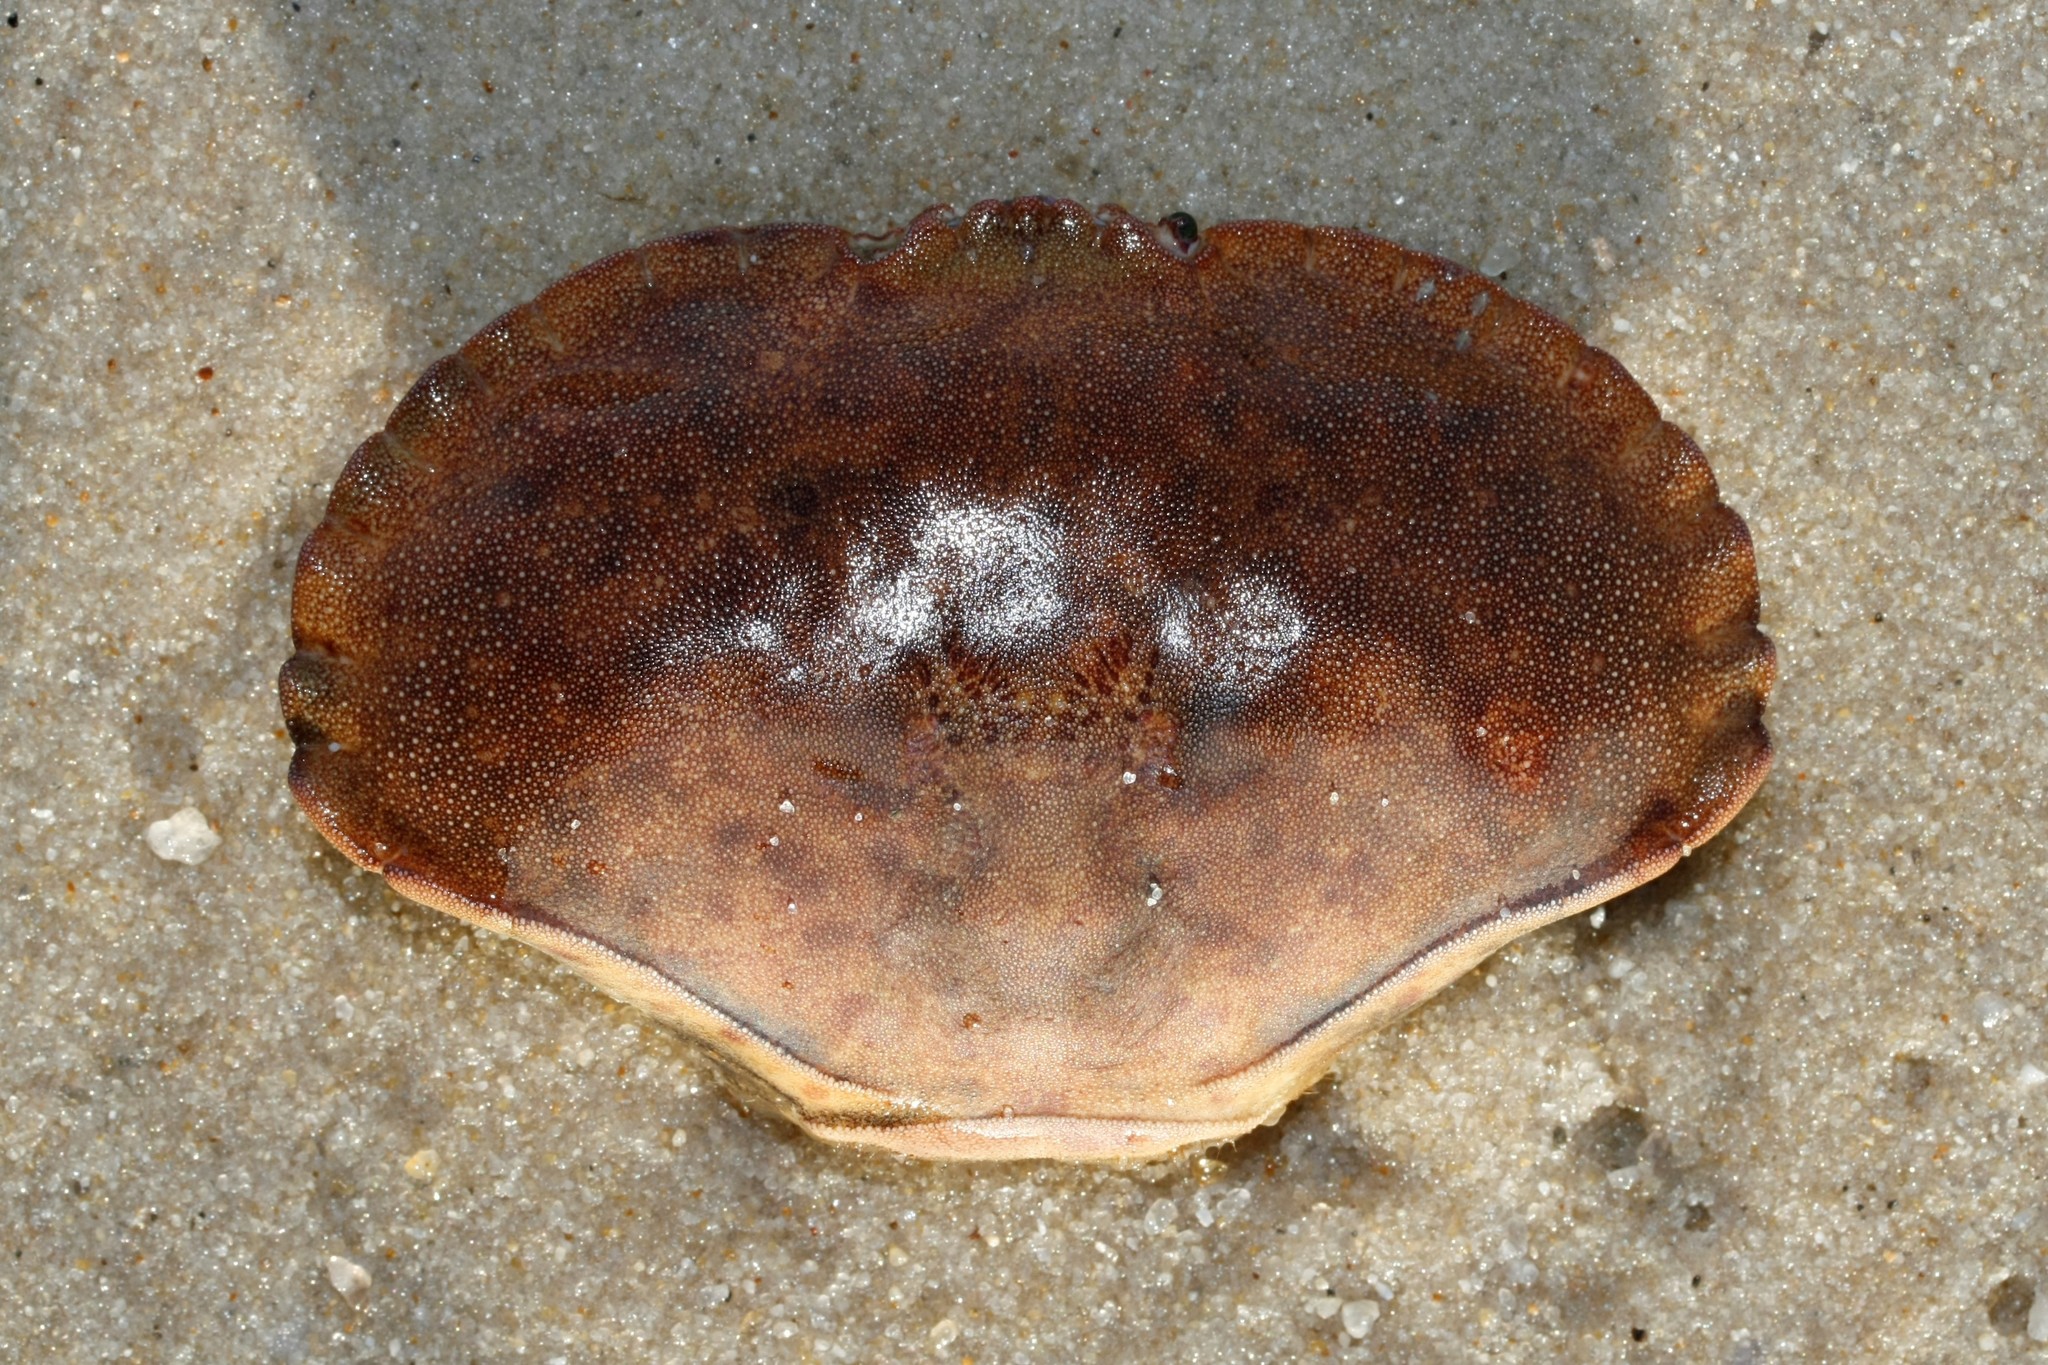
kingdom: Animalia
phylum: Arthropoda
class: Malacostraca
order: Decapoda
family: Cancridae
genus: Cancer
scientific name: Cancer pagurus
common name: Edible crab
